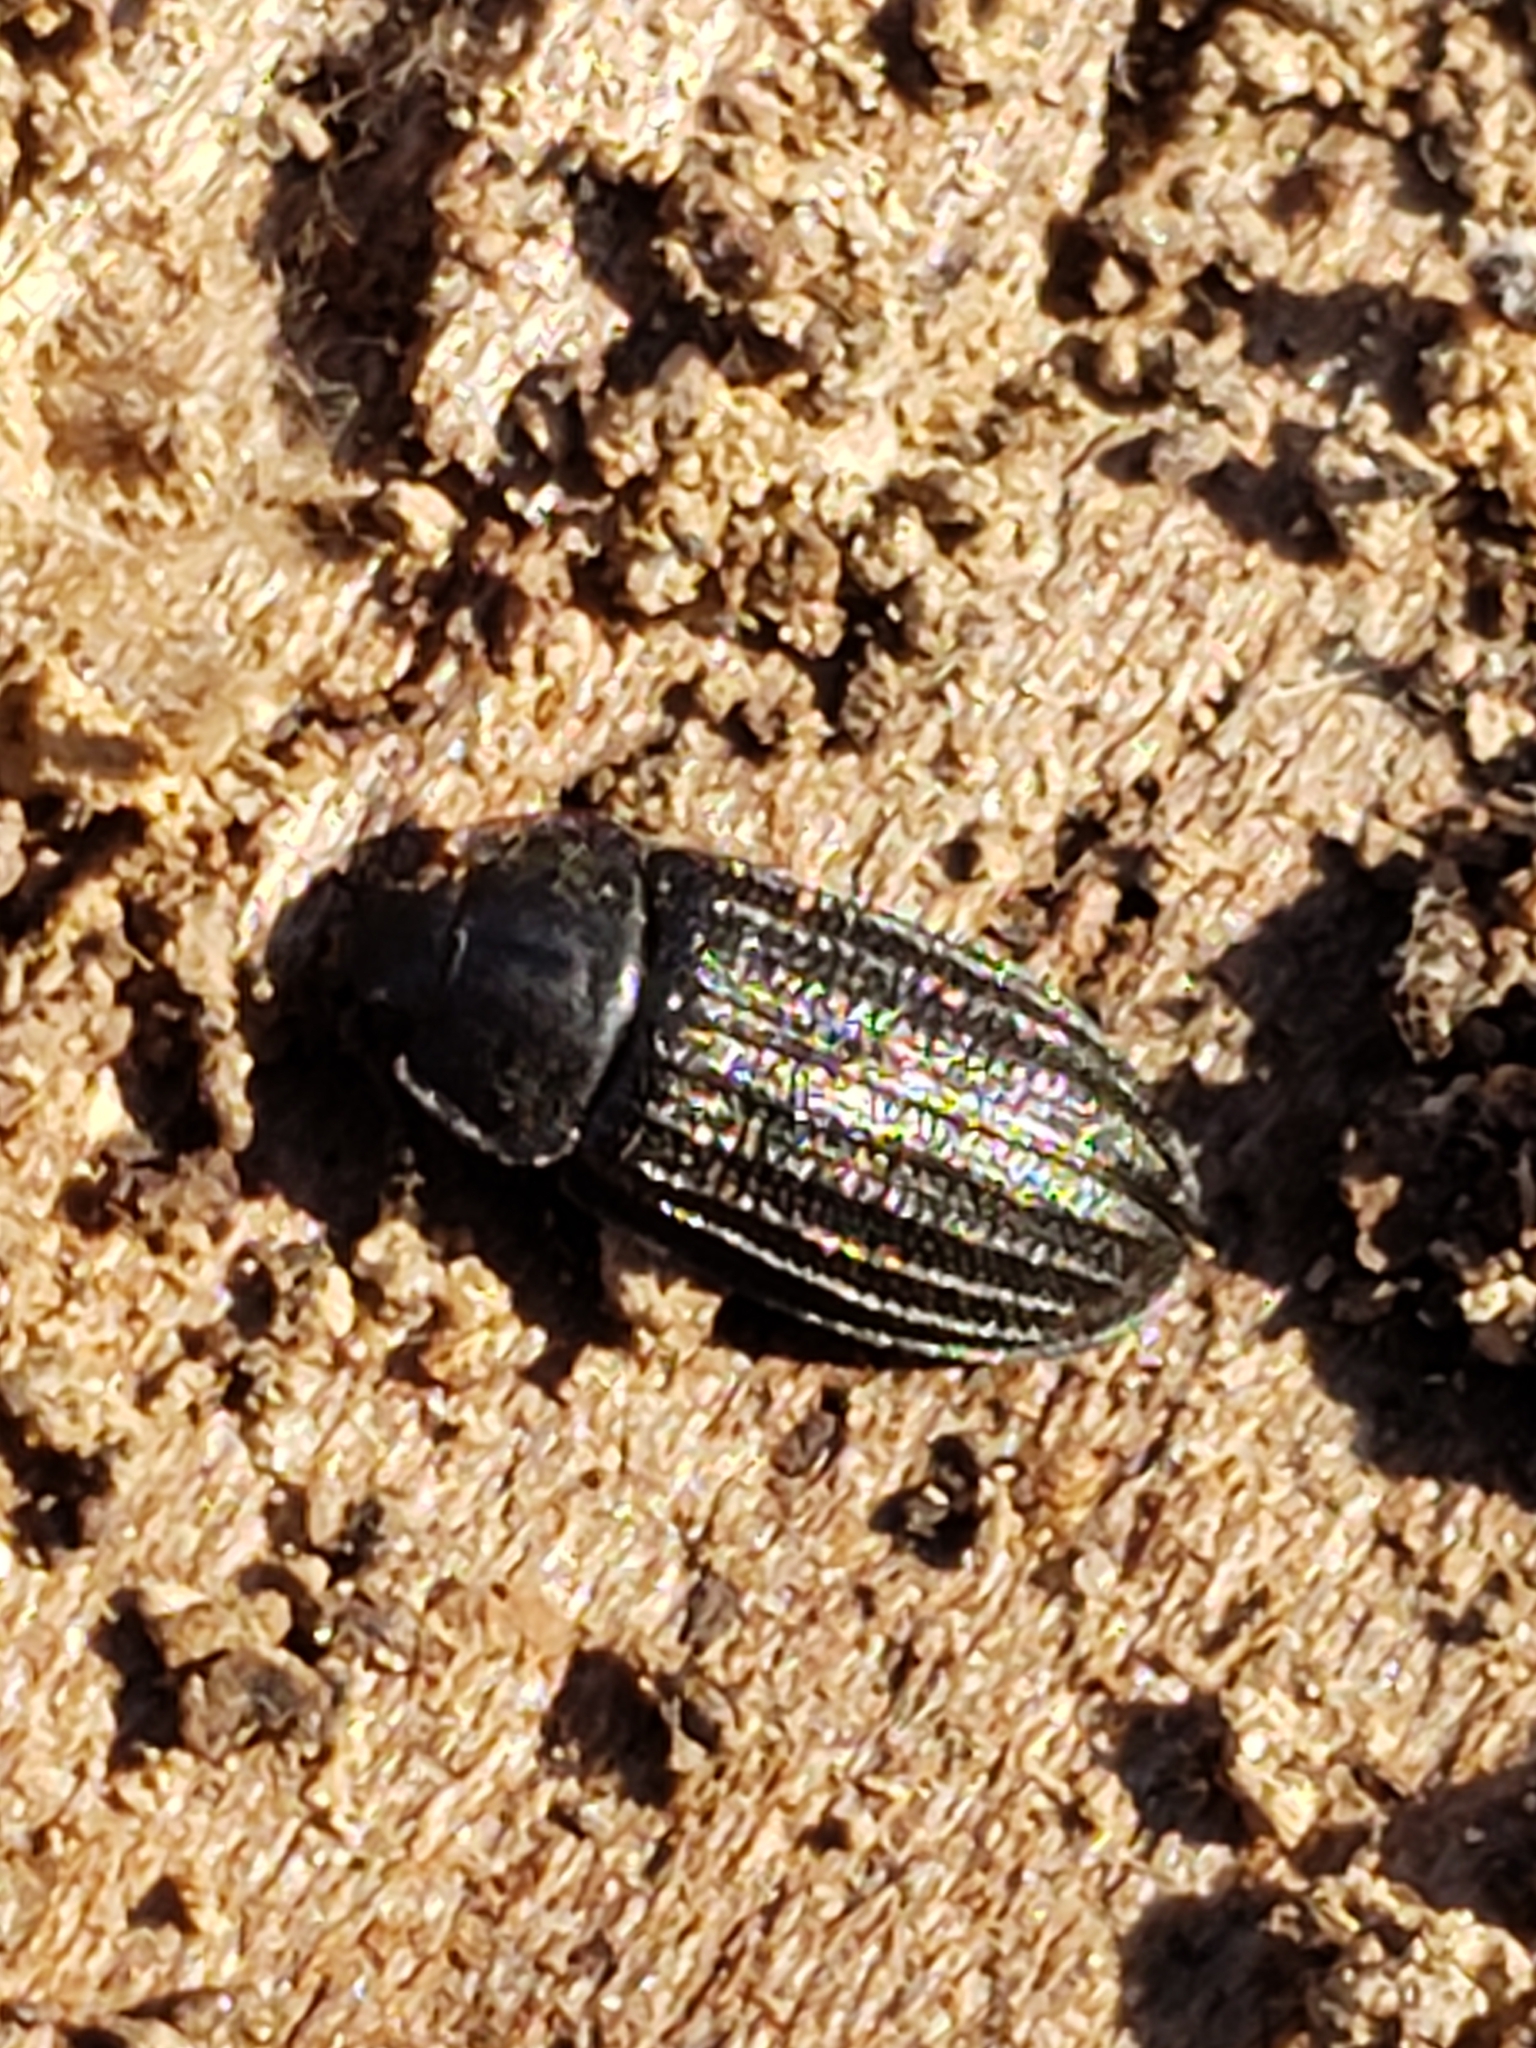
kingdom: Animalia
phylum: Arthropoda
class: Insecta
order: Coleoptera
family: Trogossitidae
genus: Grynocharis
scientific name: Grynocharis quadrilineata
